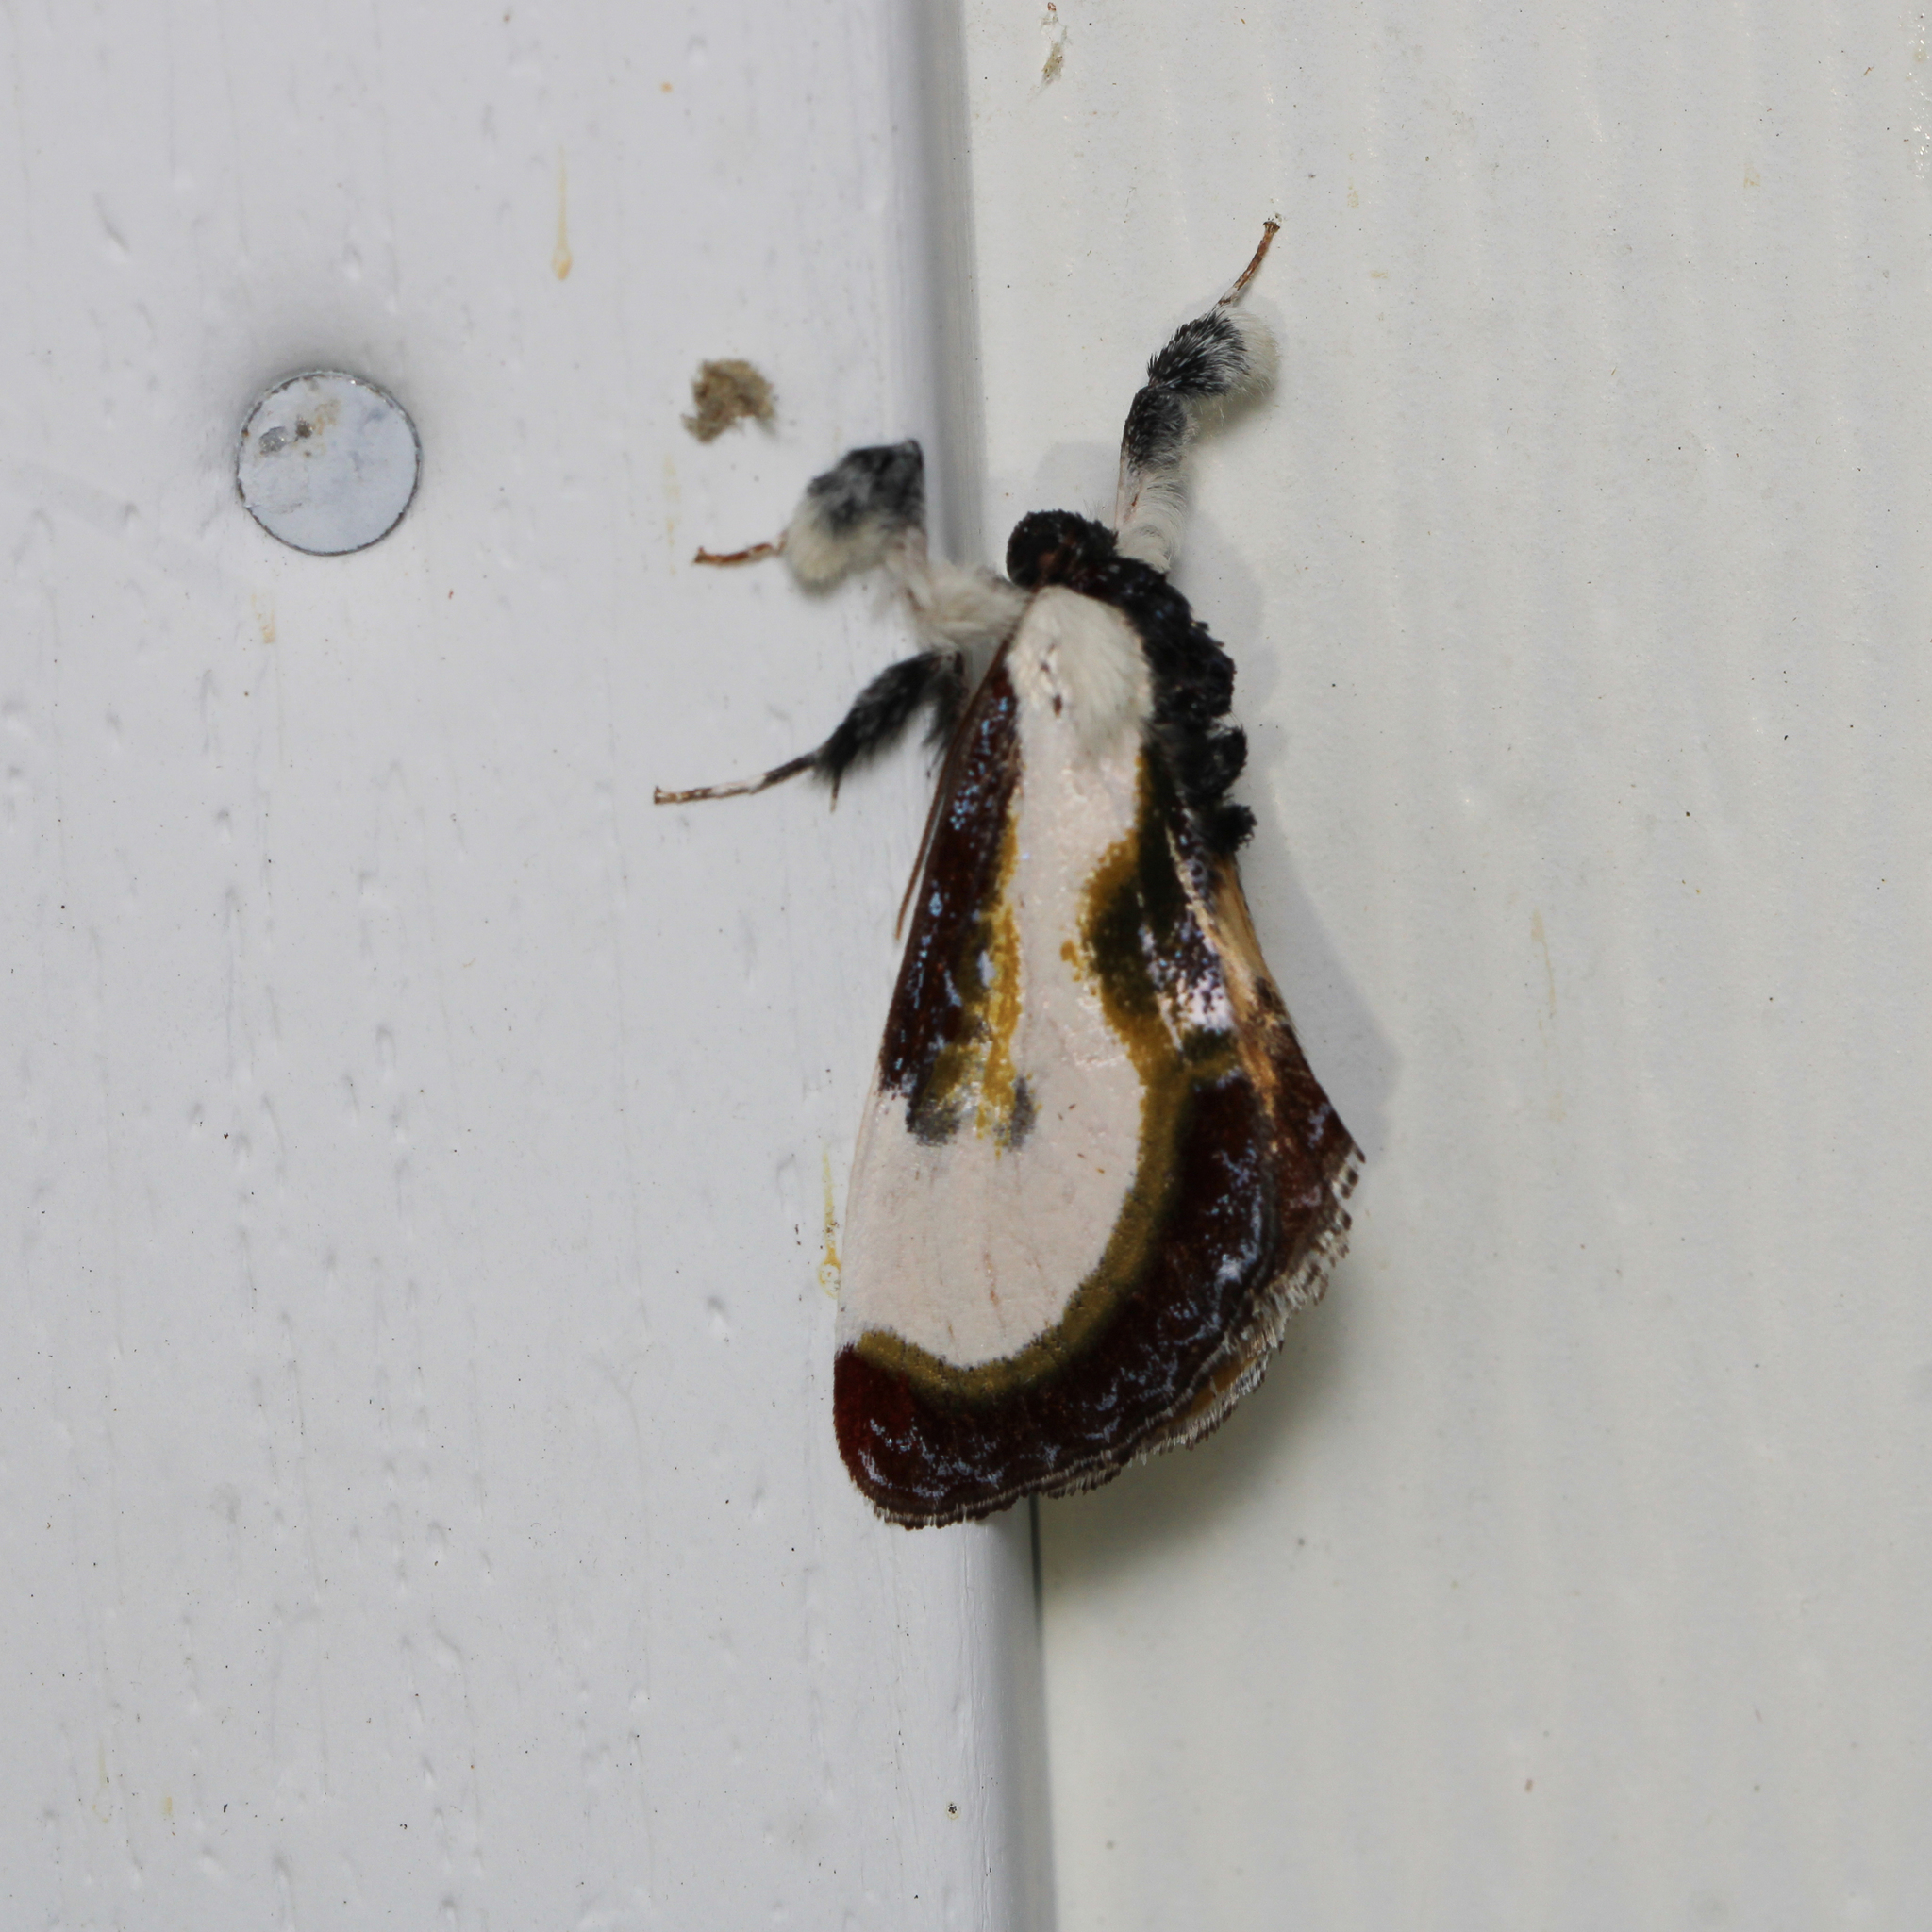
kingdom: Animalia
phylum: Arthropoda
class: Insecta
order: Lepidoptera
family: Noctuidae
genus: Eudryas
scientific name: Eudryas grata
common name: Beautiful wood-nymph
